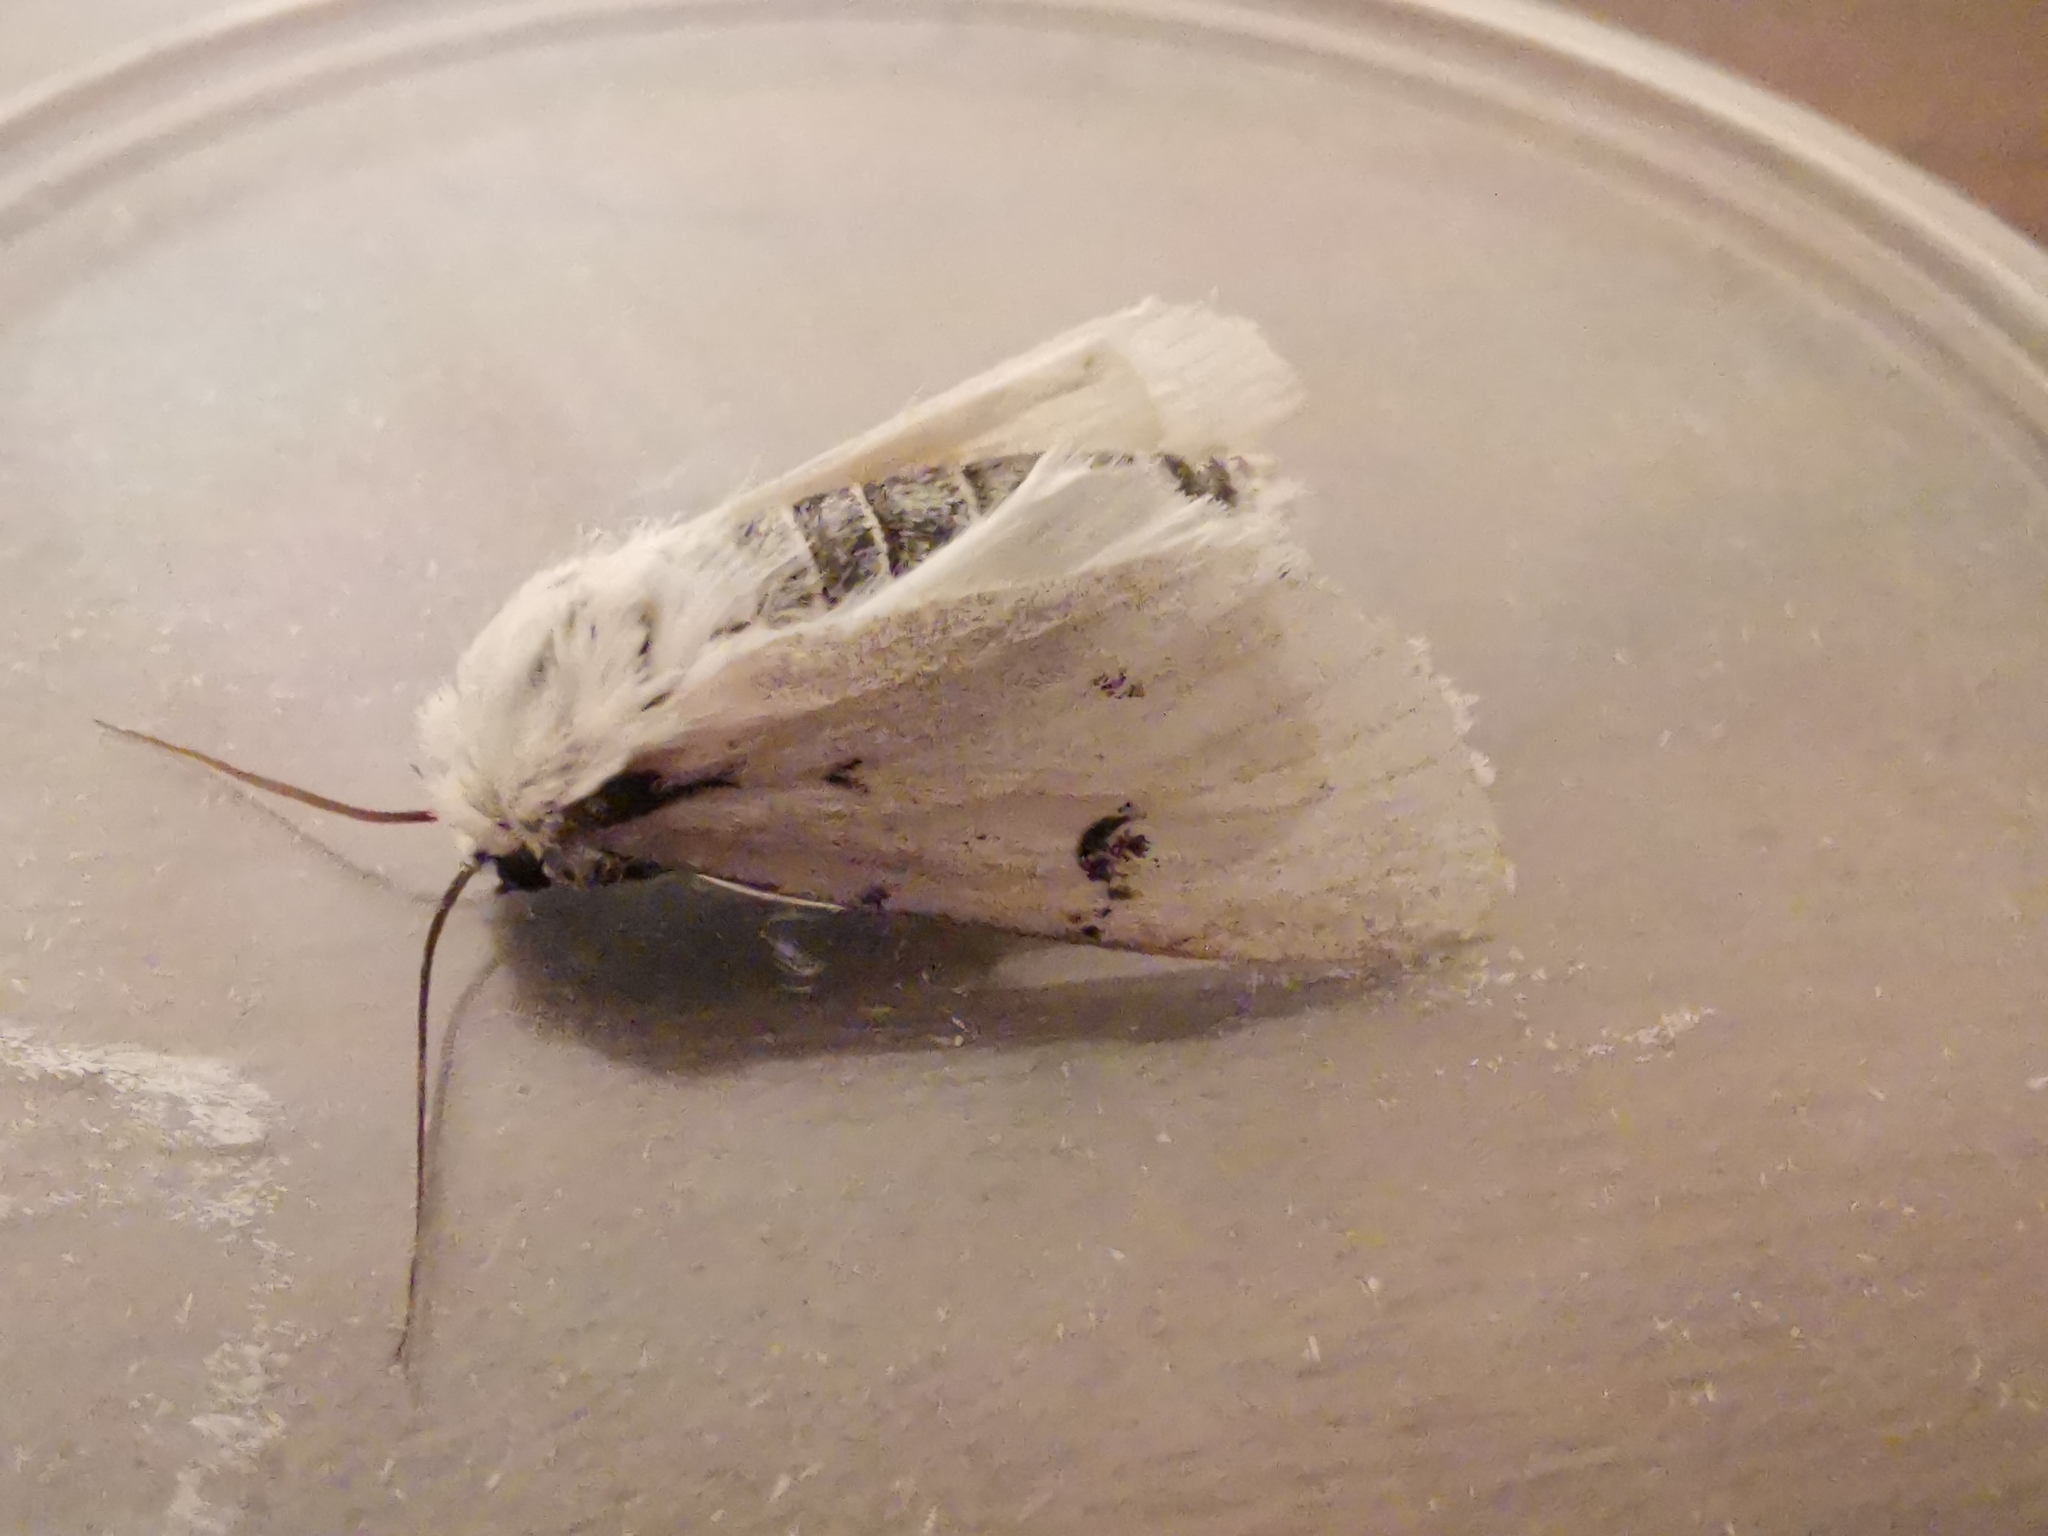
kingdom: Animalia
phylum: Arthropoda
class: Insecta
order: Lepidoptera
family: Noctuidae
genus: Acronicta
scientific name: Acronicta leporina
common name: Miller
